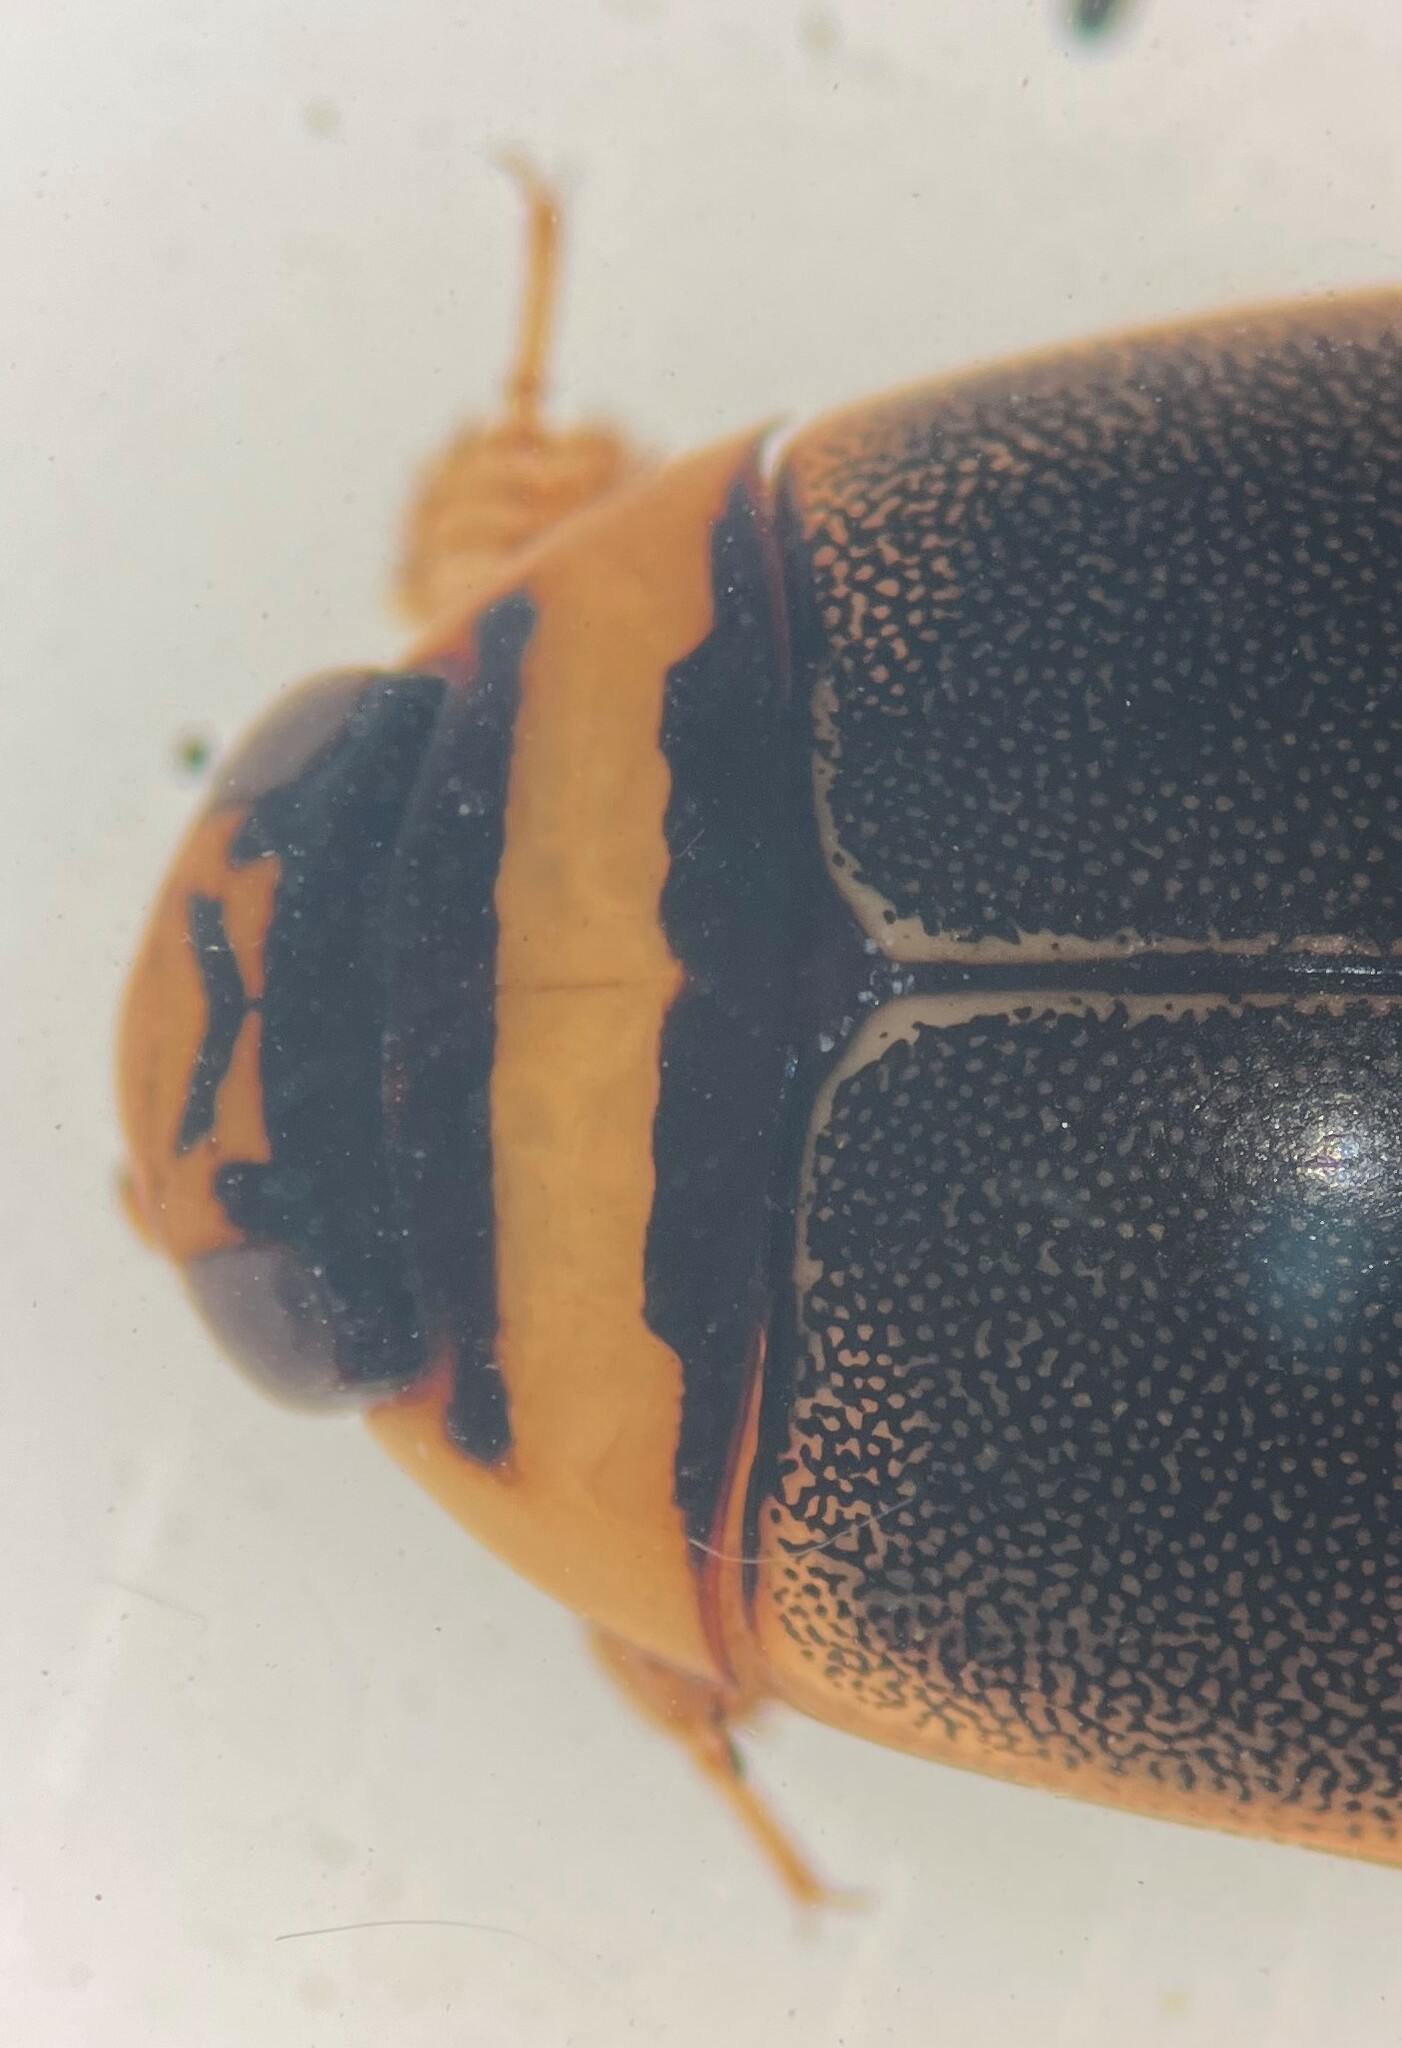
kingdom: Animalia
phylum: Arthropoda
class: Insecta
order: Coleoptera
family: Dytiscidae
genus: Graphoderus
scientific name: Graphoderus fascicollis
